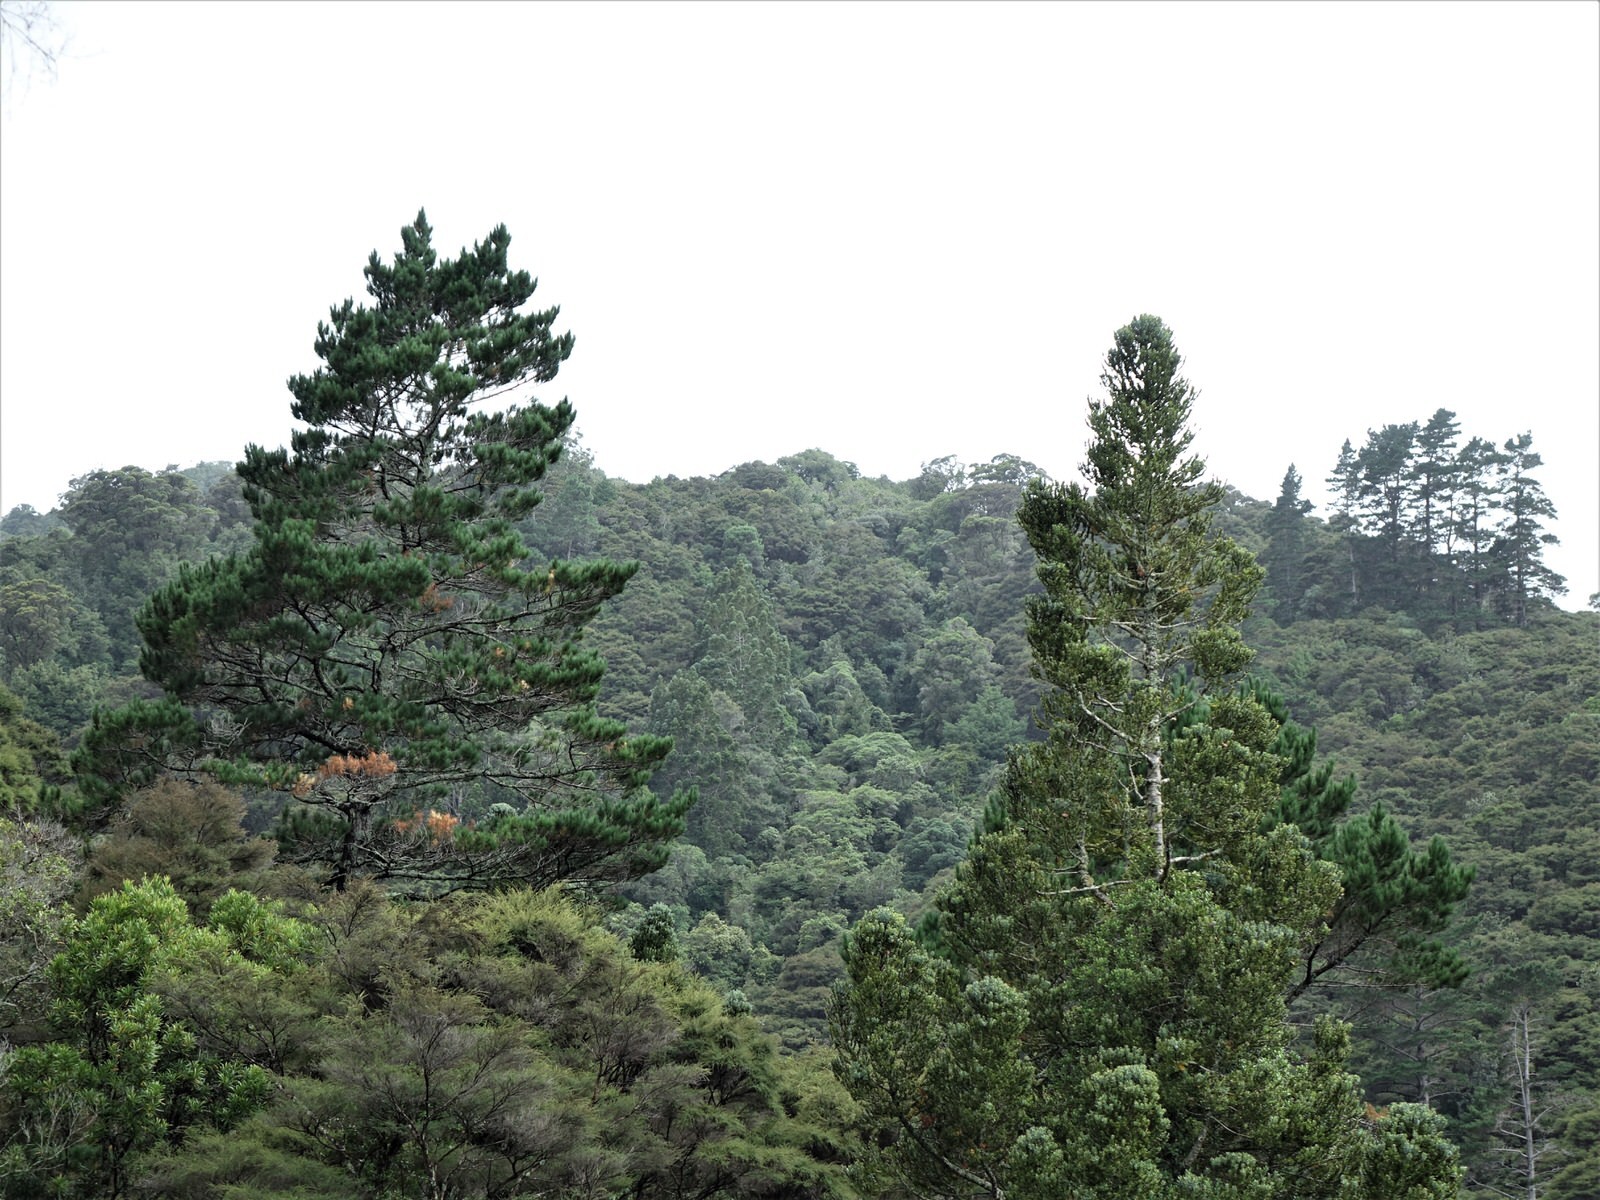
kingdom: Plantae
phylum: Tracheophyta
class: Pinopsida
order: Pinales
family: Pinaceae
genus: Pinus
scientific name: Pinus radiata
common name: Monterey pine
